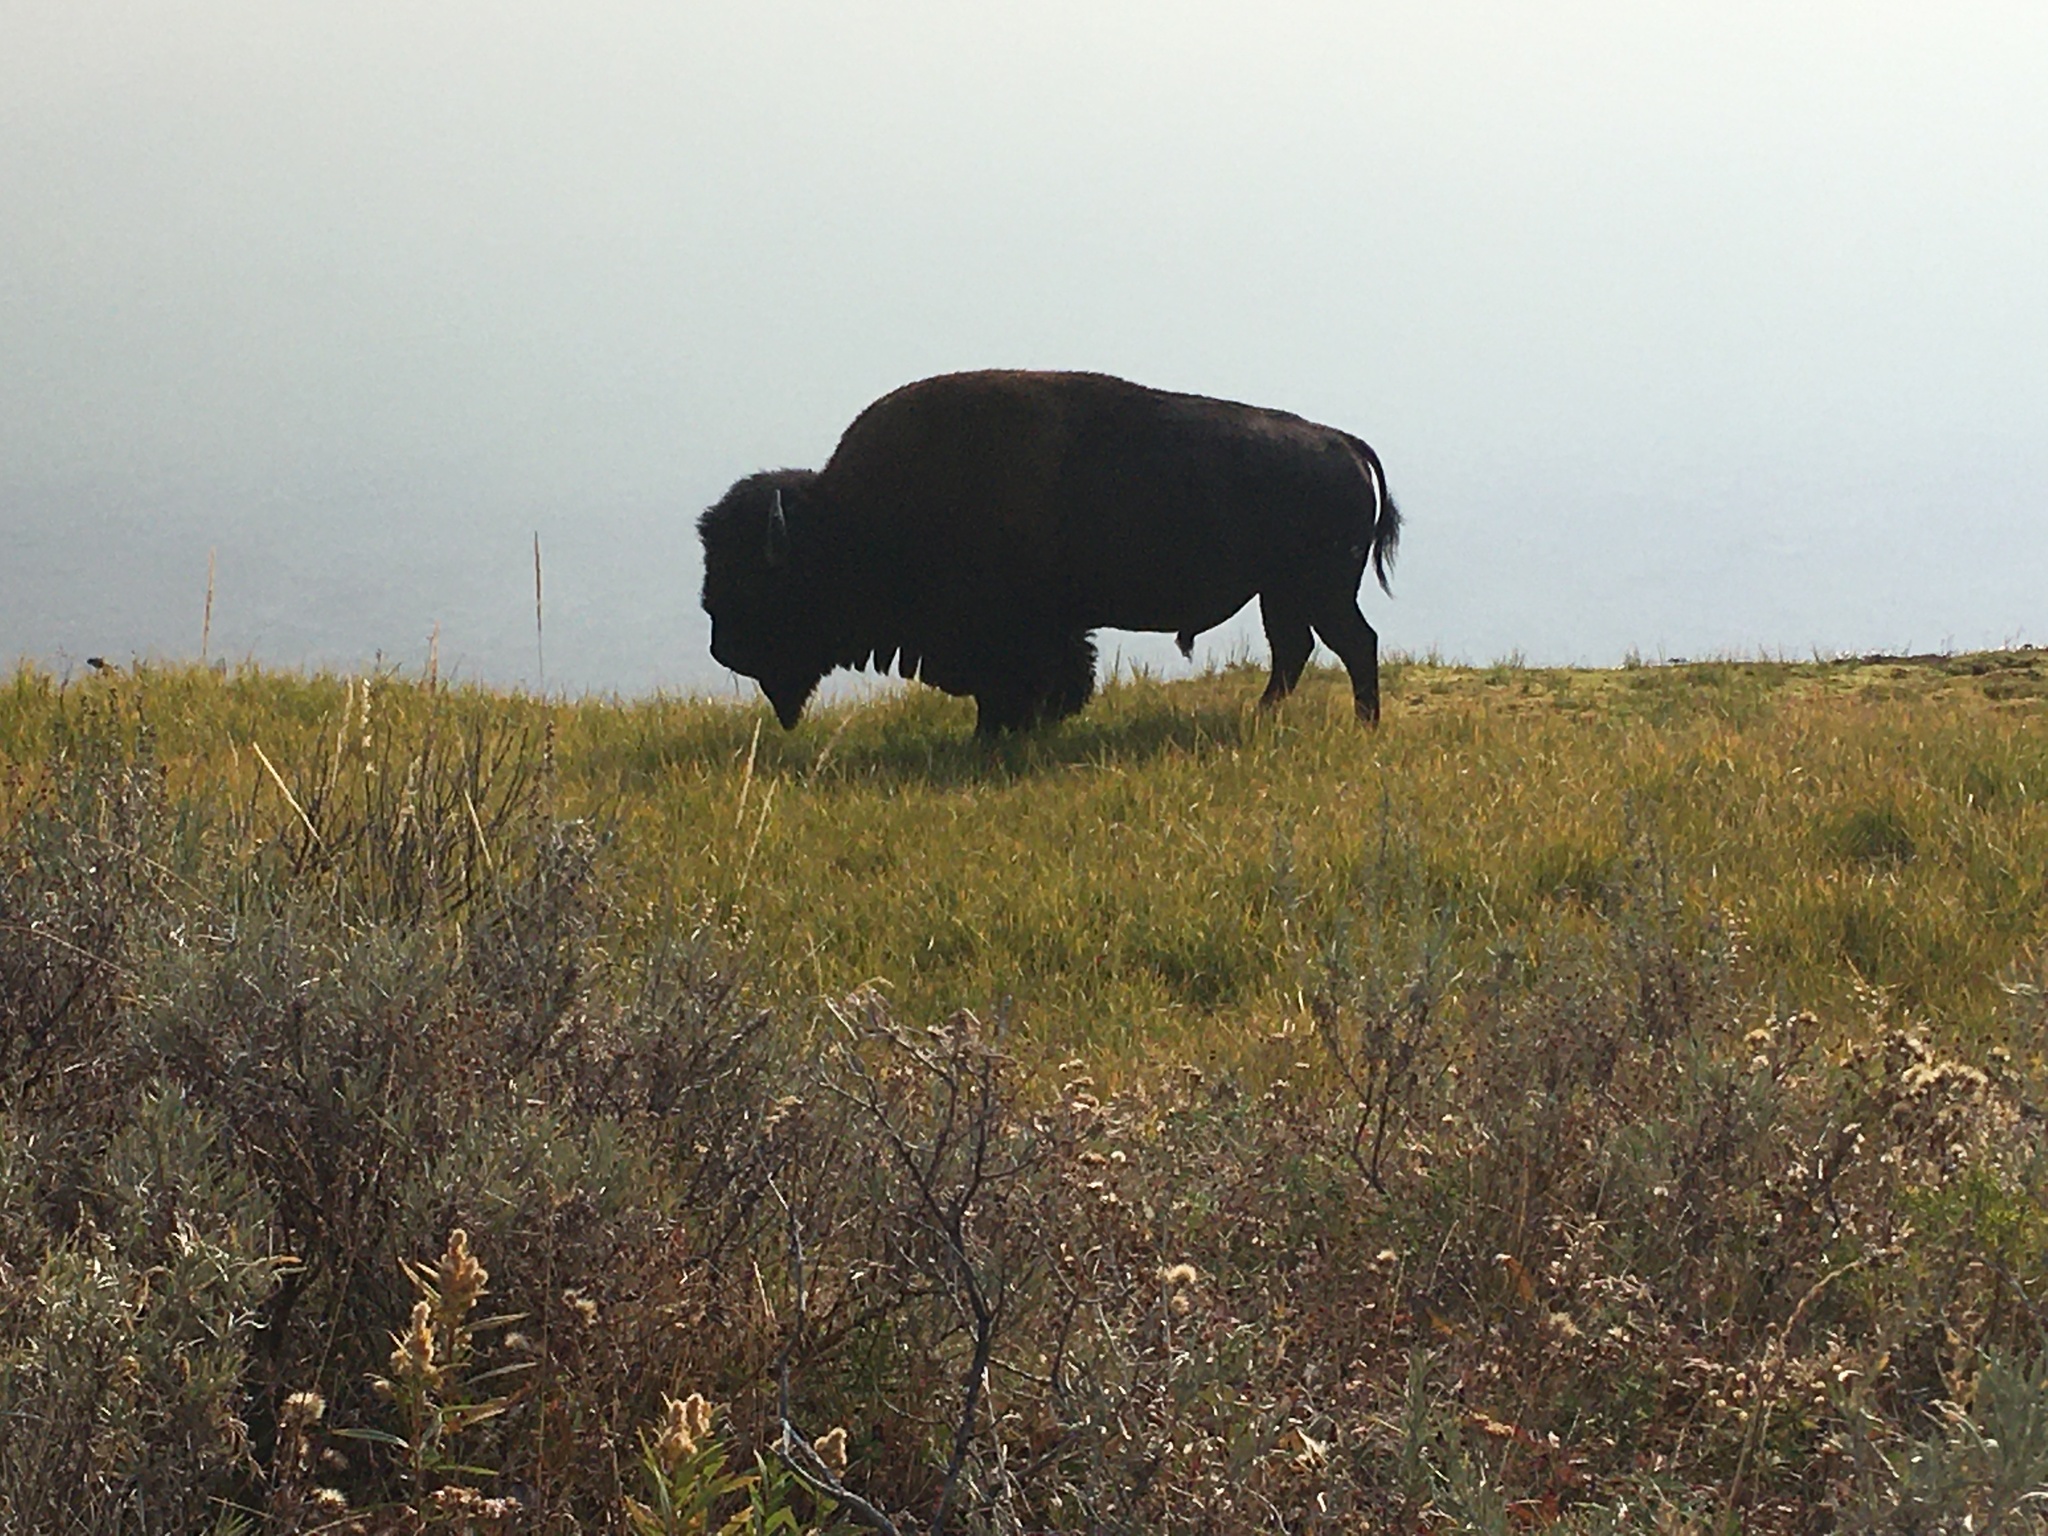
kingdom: Animalia
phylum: Chordata
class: Mammalia
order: Artiodactyla
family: Bovidae
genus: Bison
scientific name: Bison bison
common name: American bison
